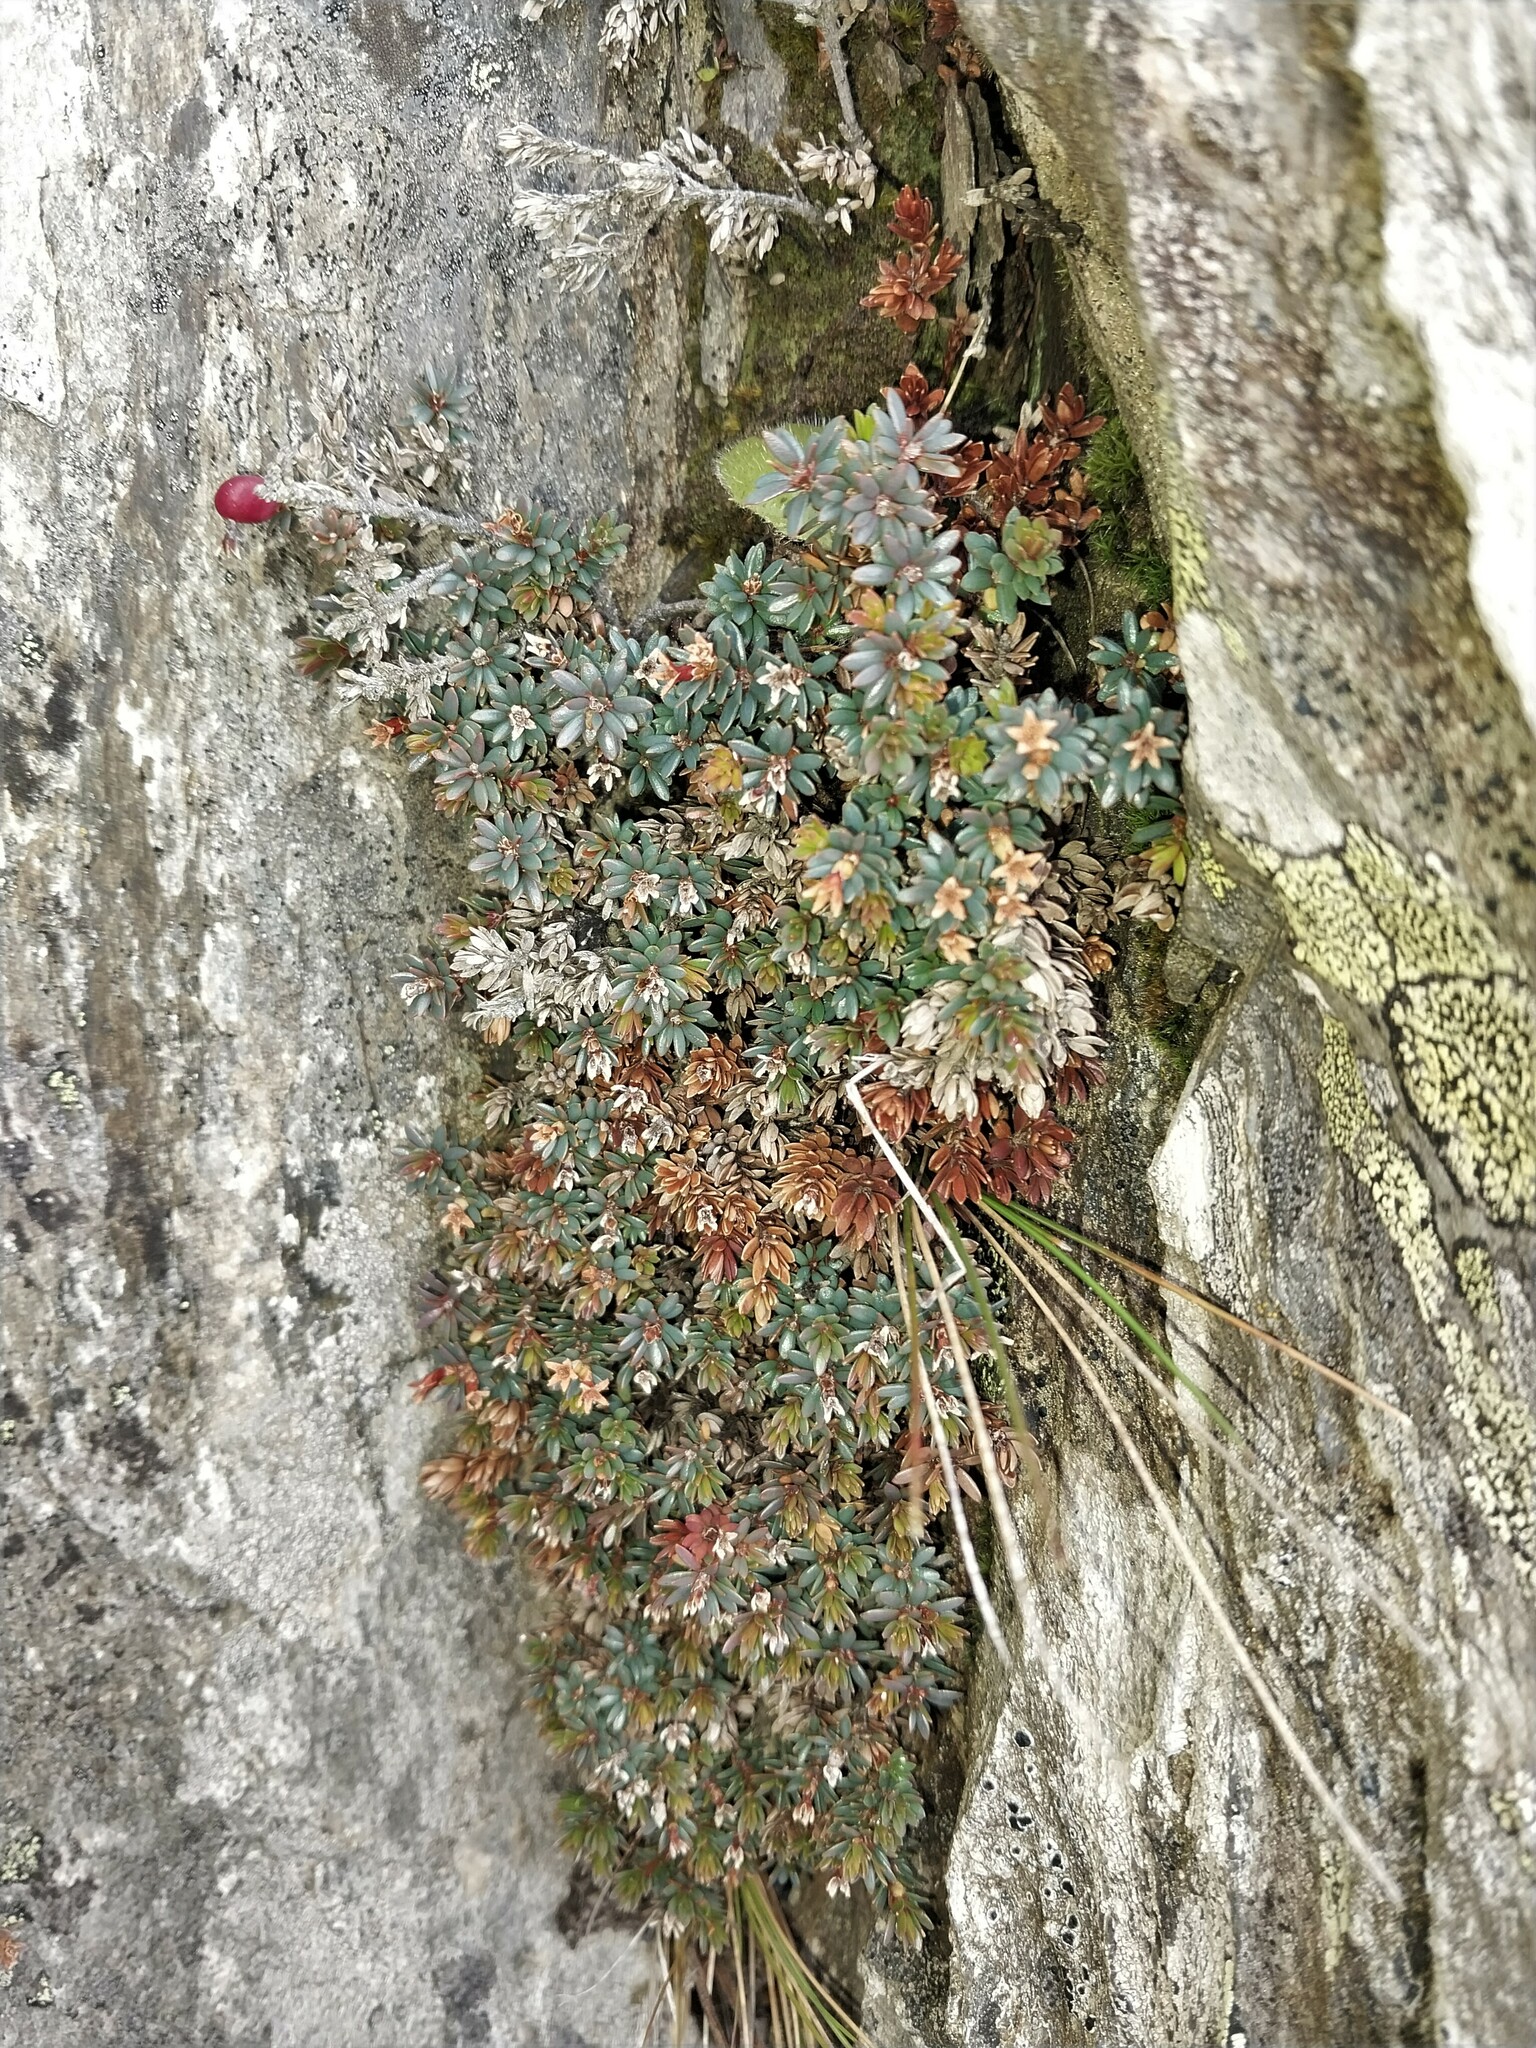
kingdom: Plantae
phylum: Tracheophyta
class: Magnoliopsida
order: Ericales
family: Ericaceae
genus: Pentachondra
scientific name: Pentachondra pumila
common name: Carpet-heath
